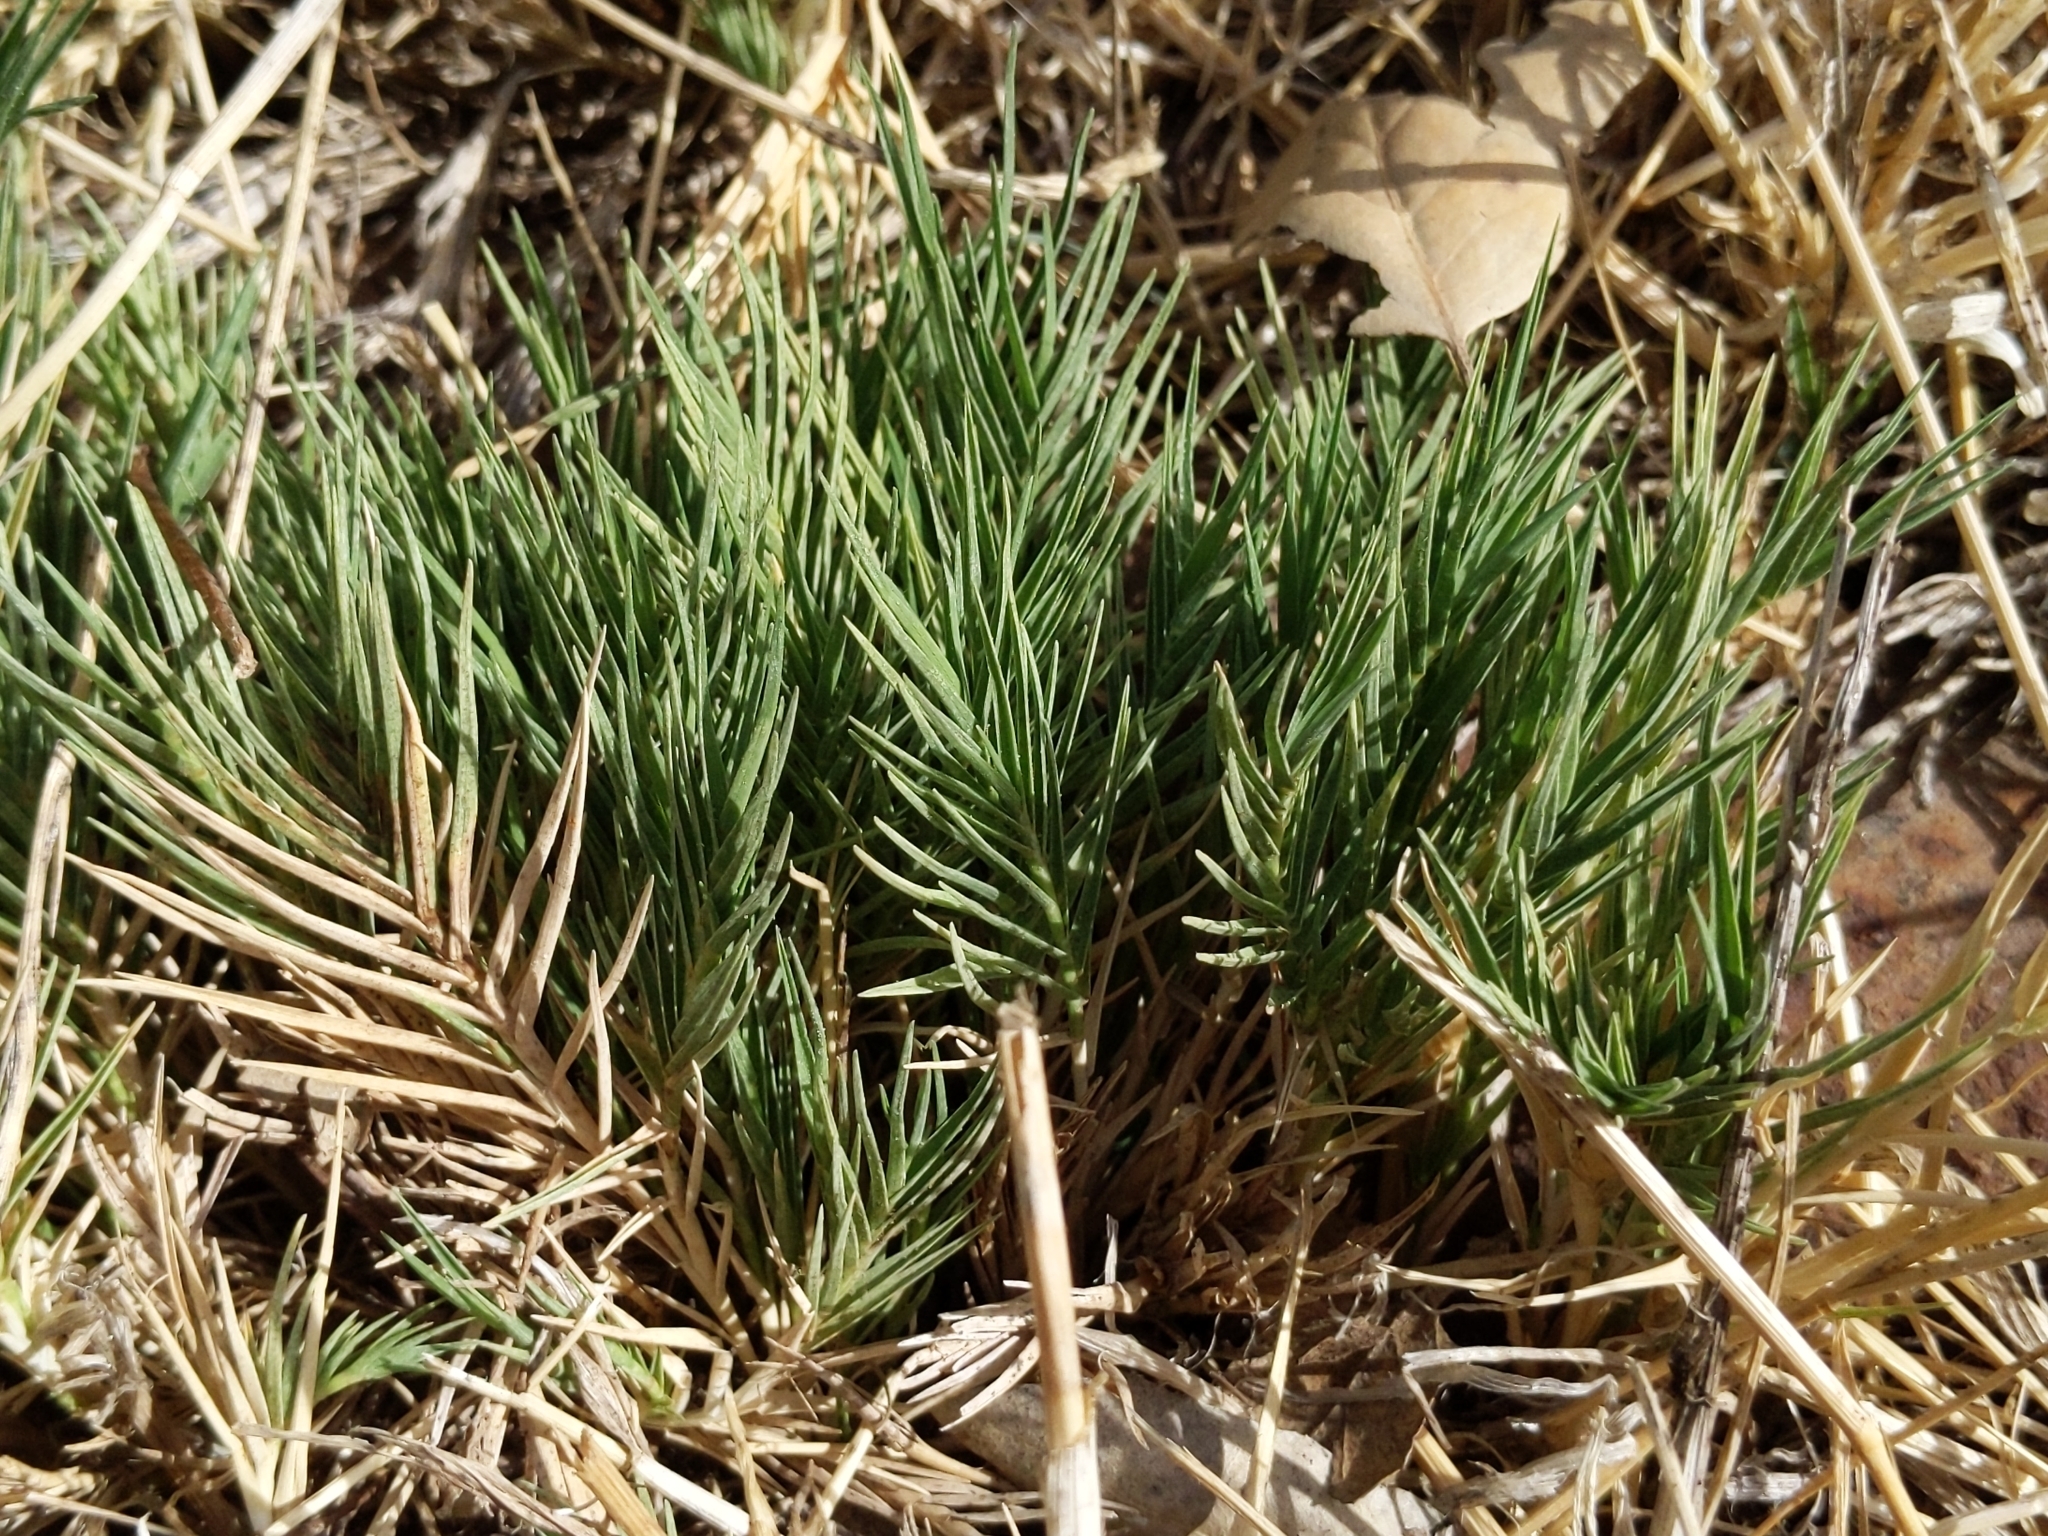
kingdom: Plantae
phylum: Tracheophyta
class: Liliopsida
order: Poales
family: Poaceae
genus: Distichlis
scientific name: Distichlis spicata
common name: Saltgrass
